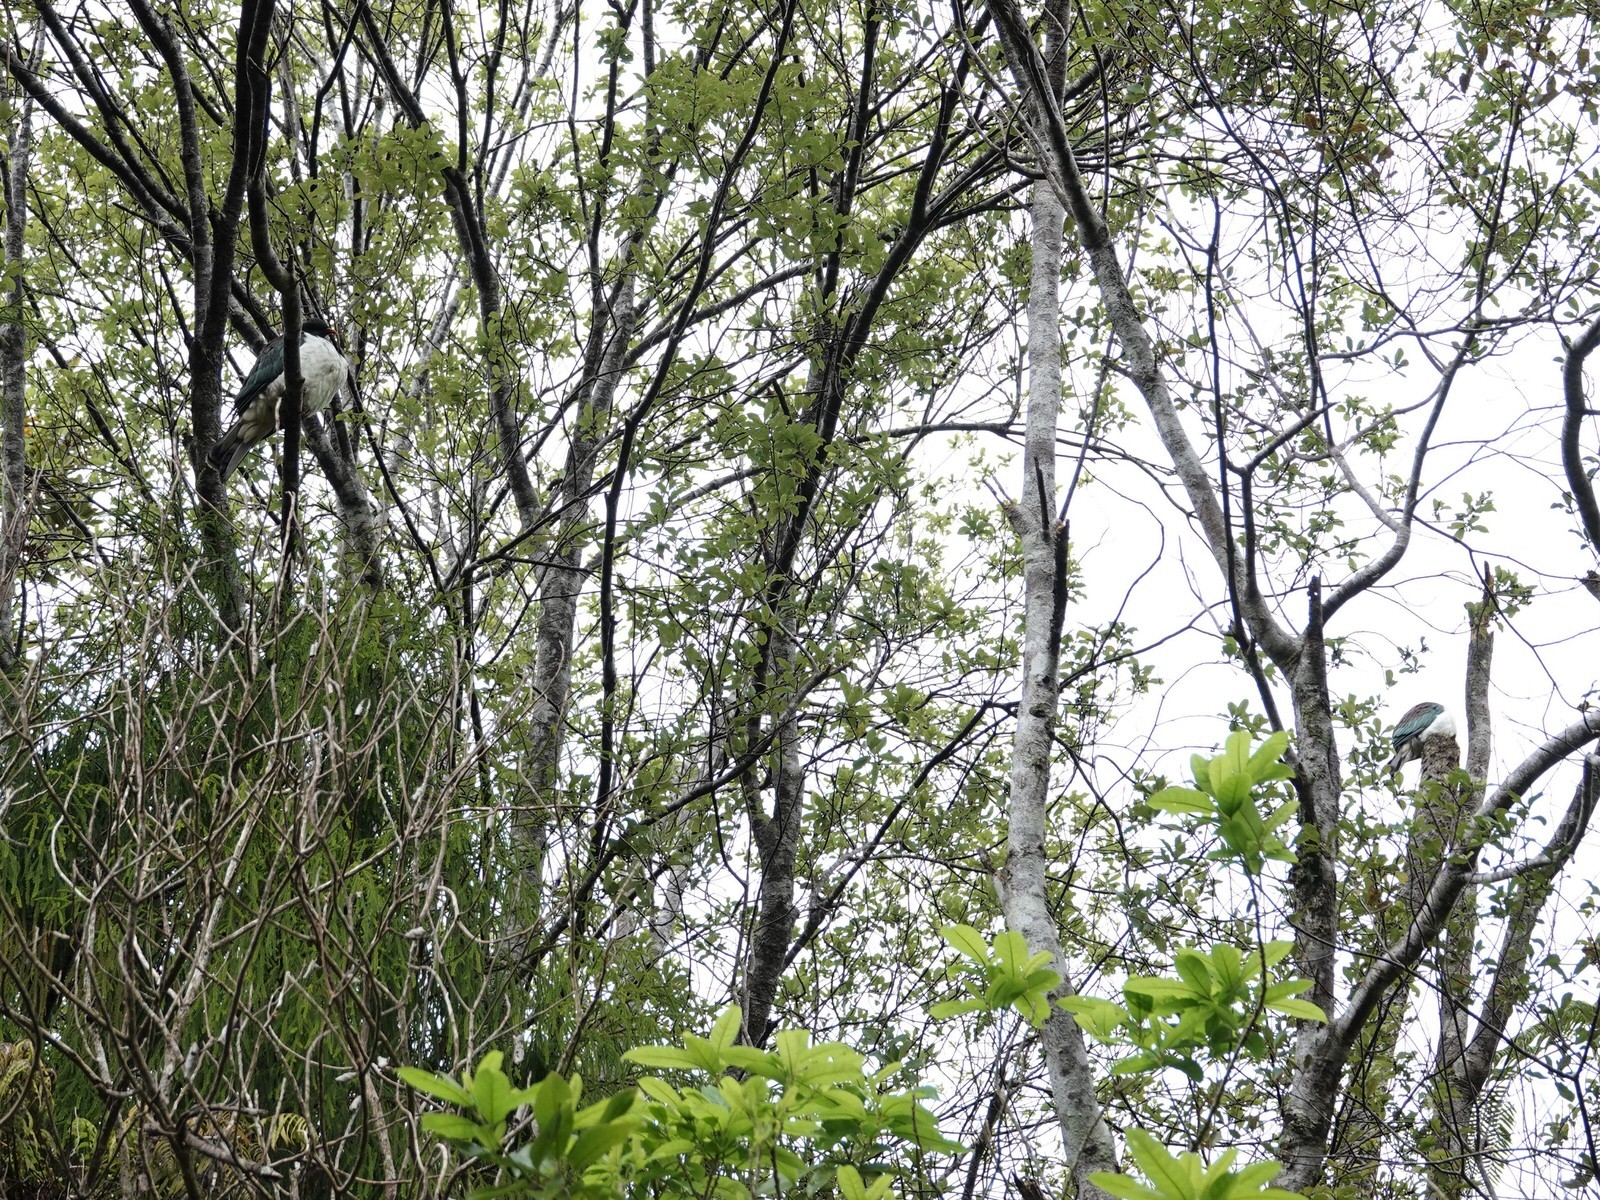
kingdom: Animalia
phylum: Chordata
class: Aves
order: Columbiformes
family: Columbidae
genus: Hemiphaga
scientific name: Hemiphaga novaeseelandiae
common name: New zealand pigeon
